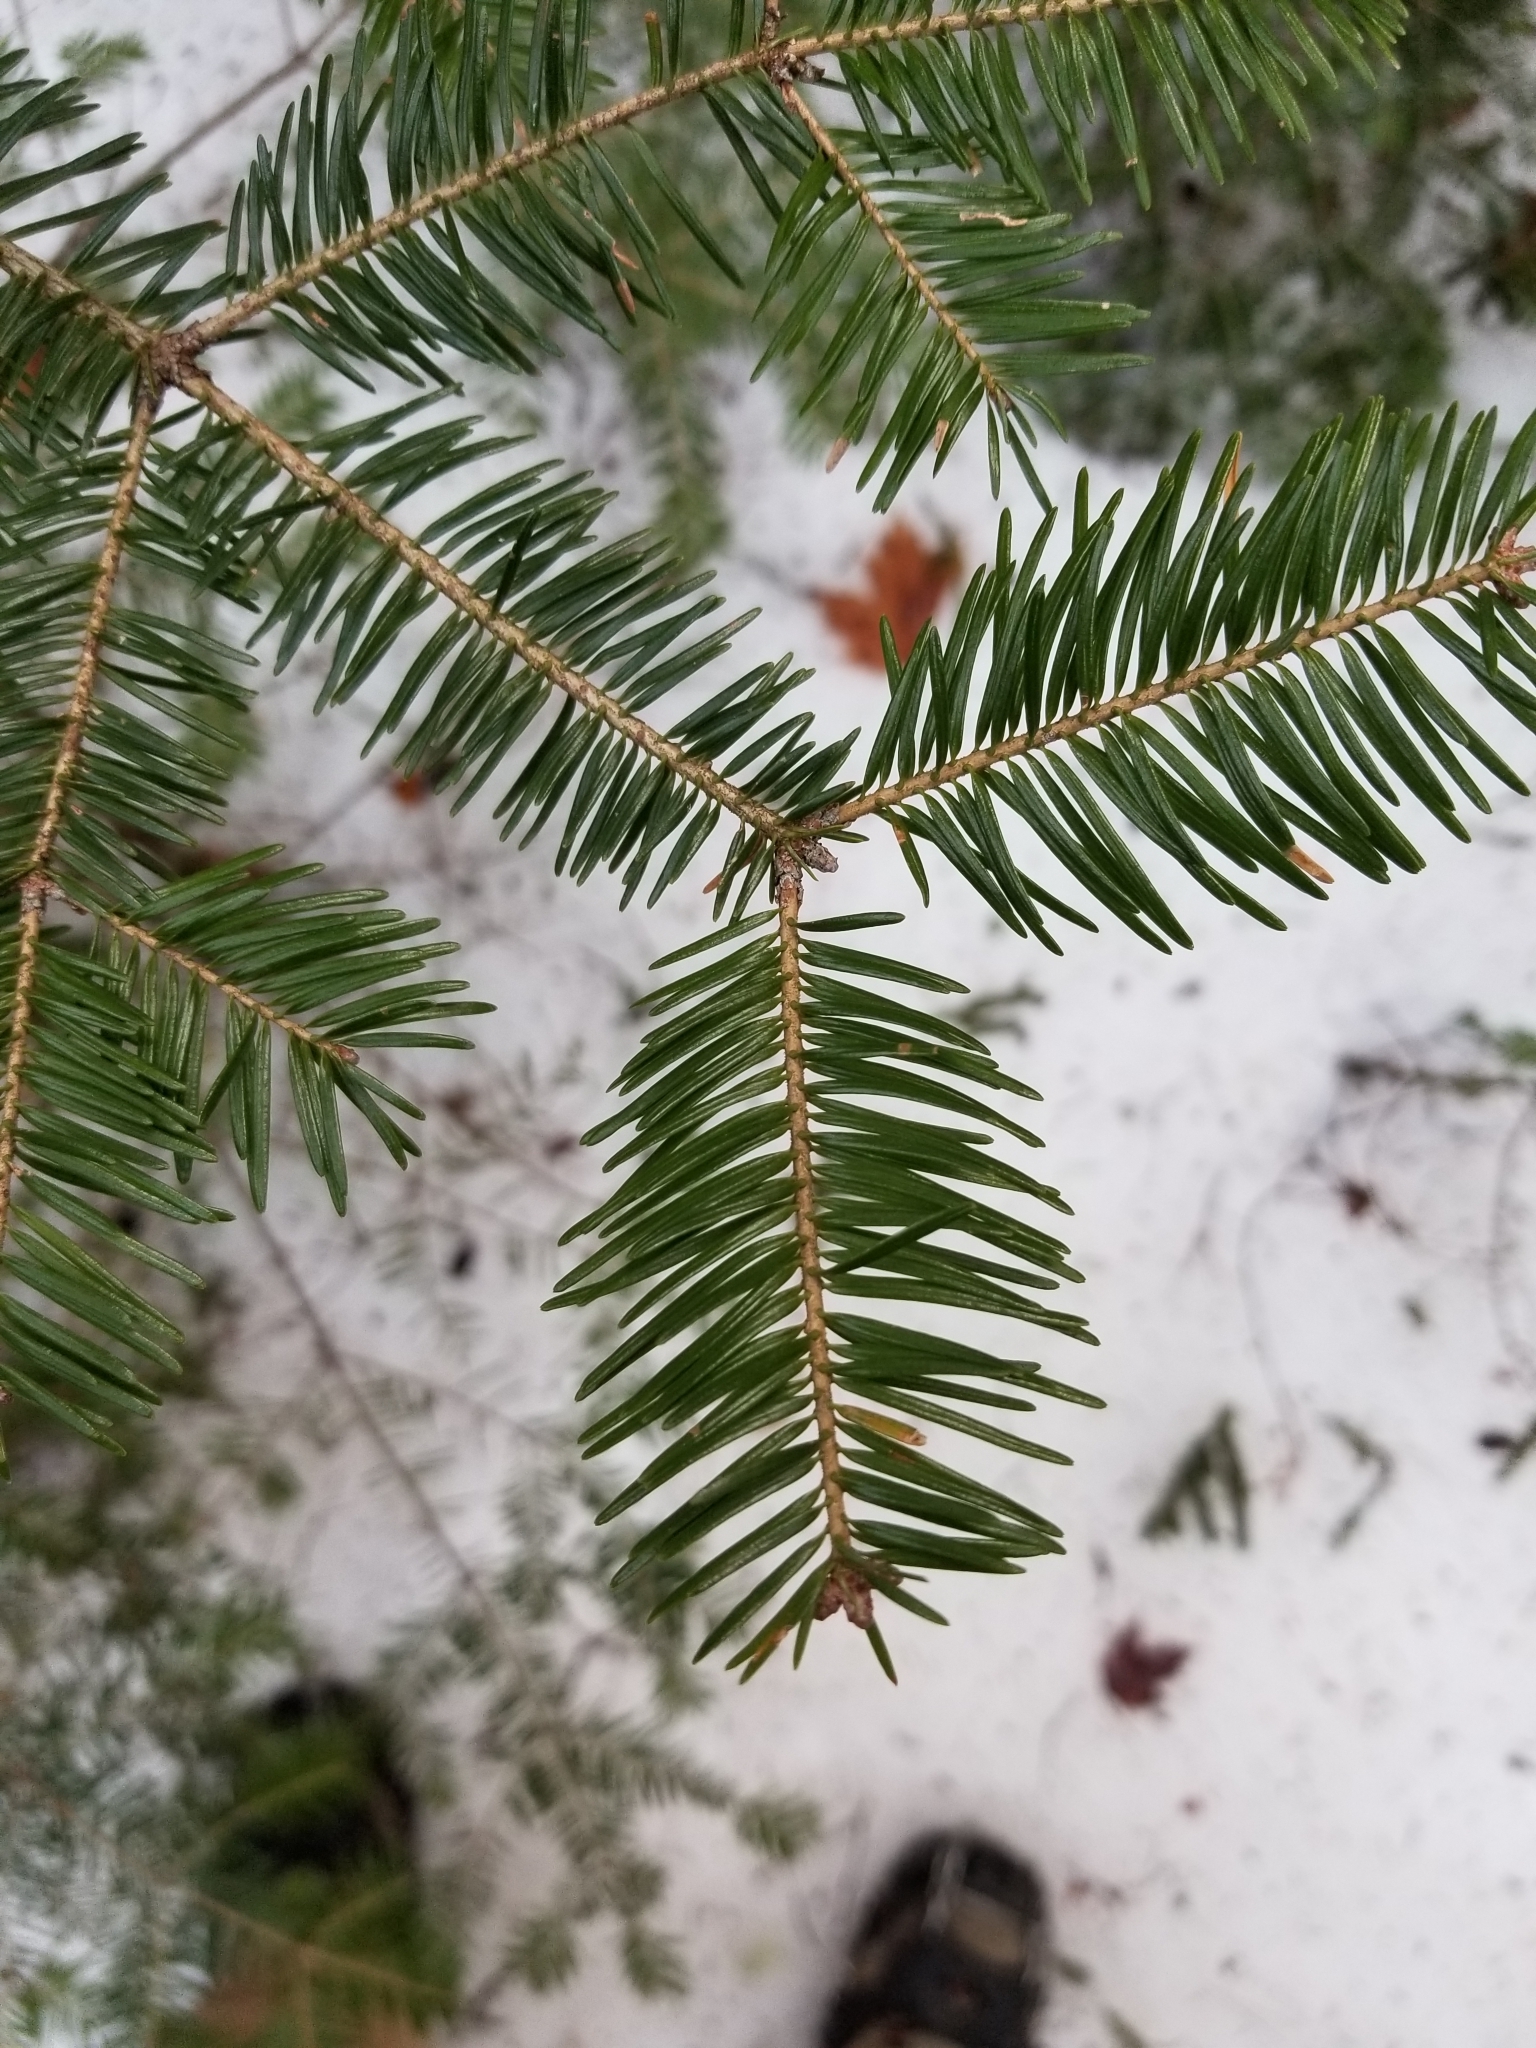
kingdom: Plantae
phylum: Tracheophyta
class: Pinopsida
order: Pinales
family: Pinaceae
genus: Abies
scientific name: Abies balsamea
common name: Balsam fir
